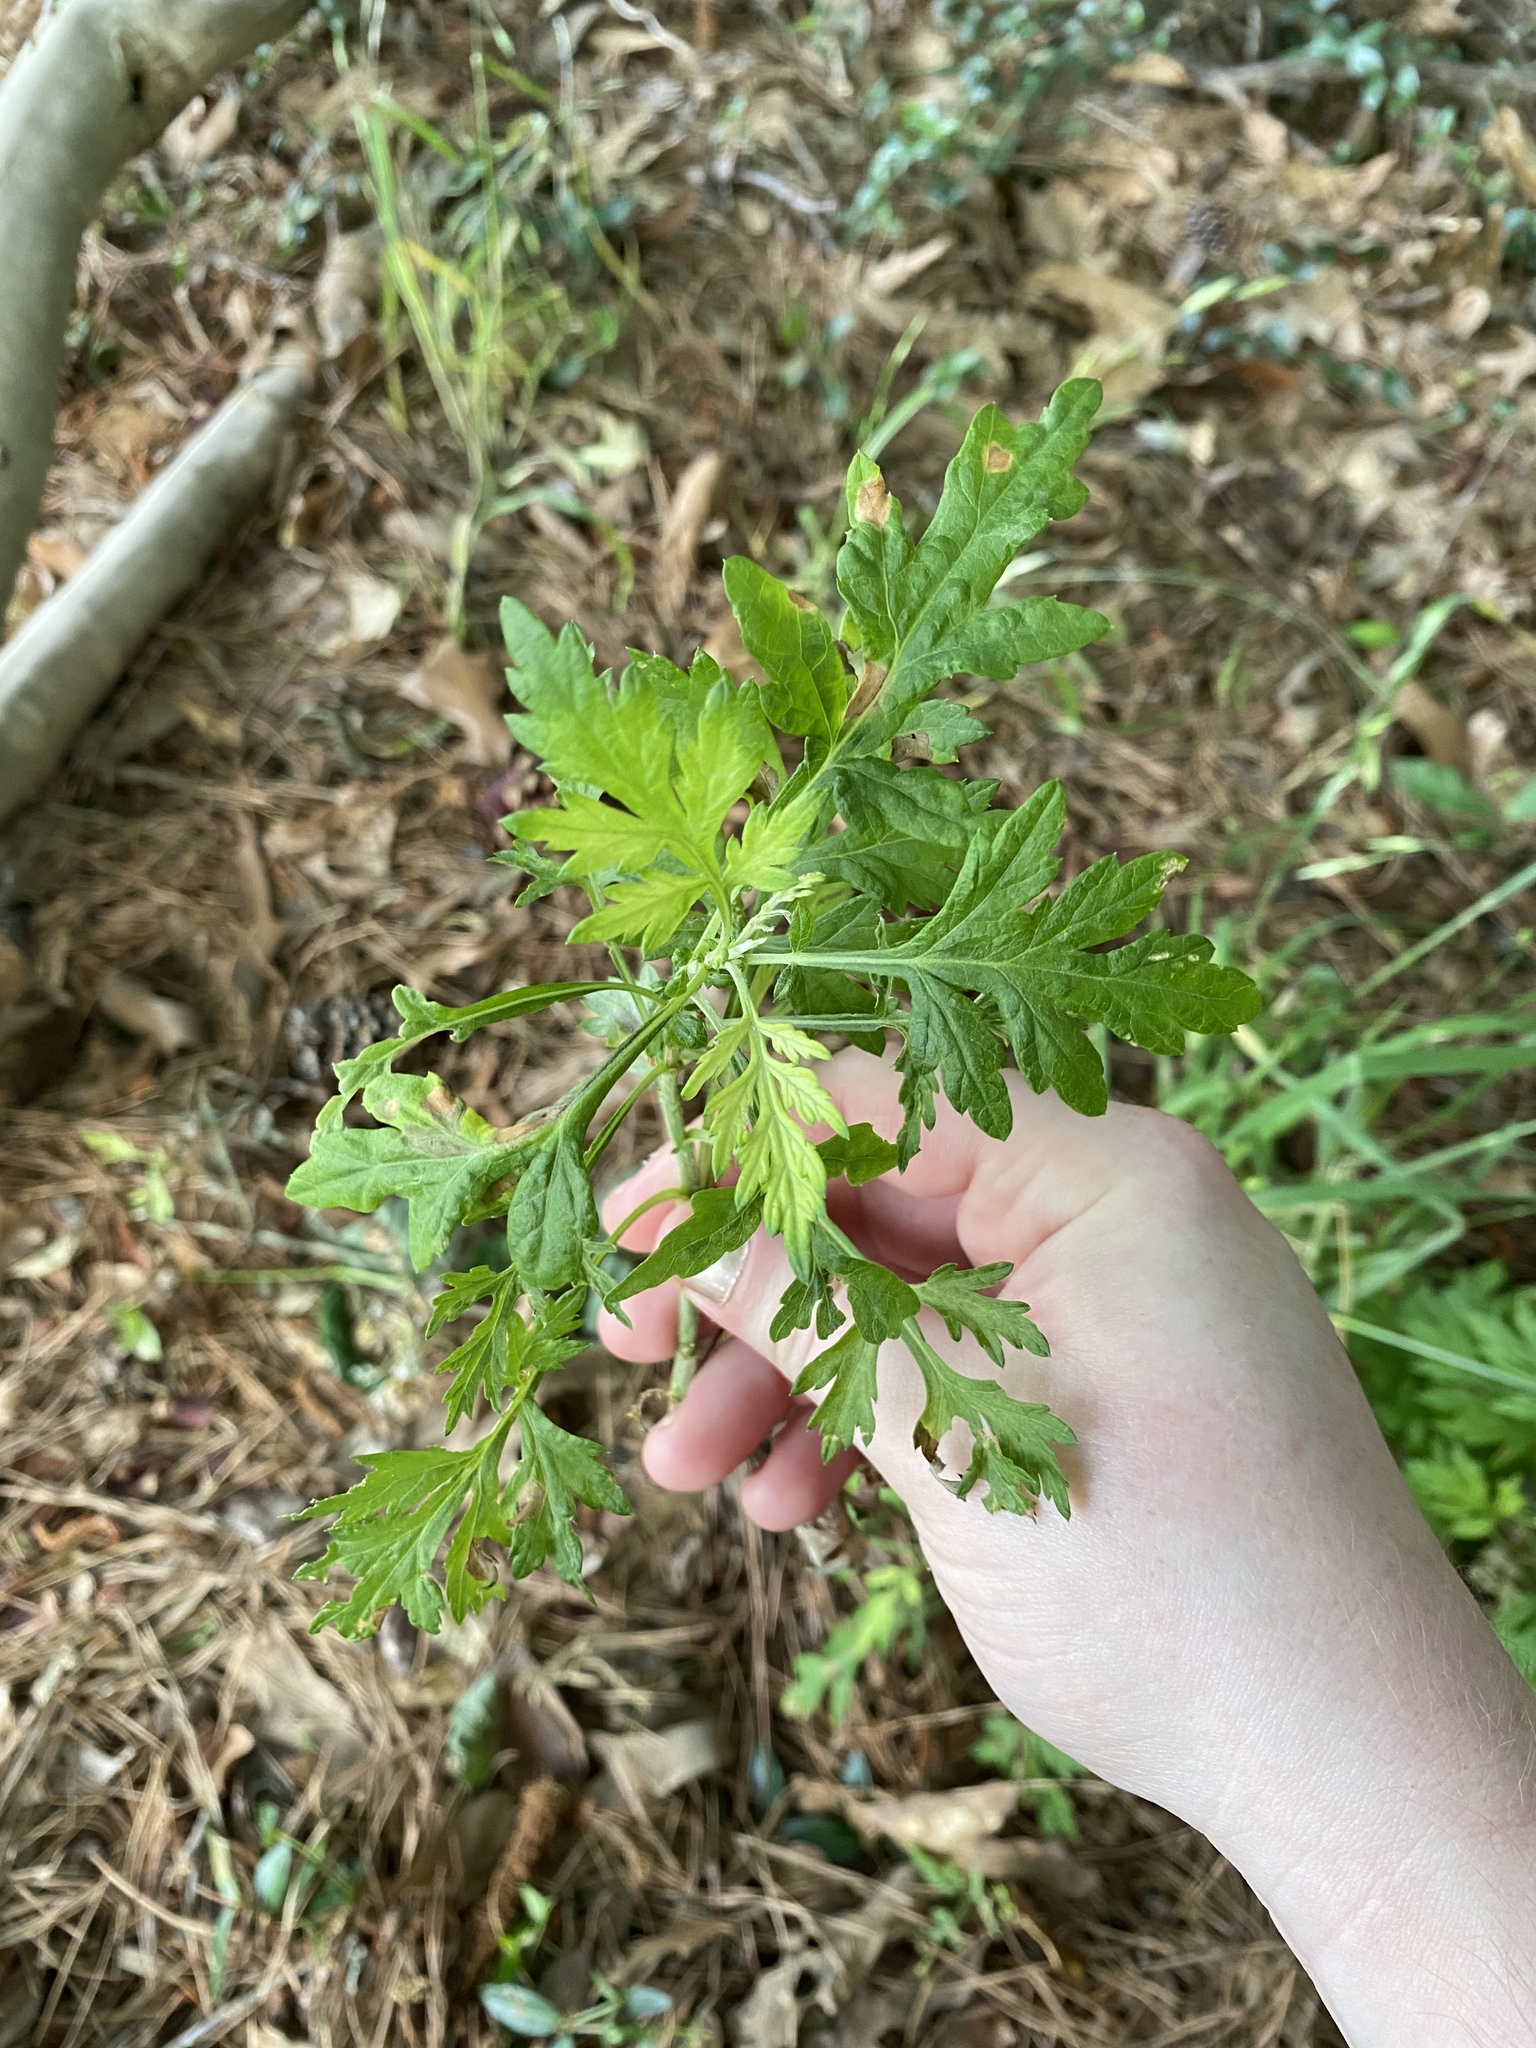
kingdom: Plantae
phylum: Tracheophyta
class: Magnoliopsida
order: Asterales
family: Asteraceae
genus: Artemisia
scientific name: Artemisia vulgaris
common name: Mugwort
